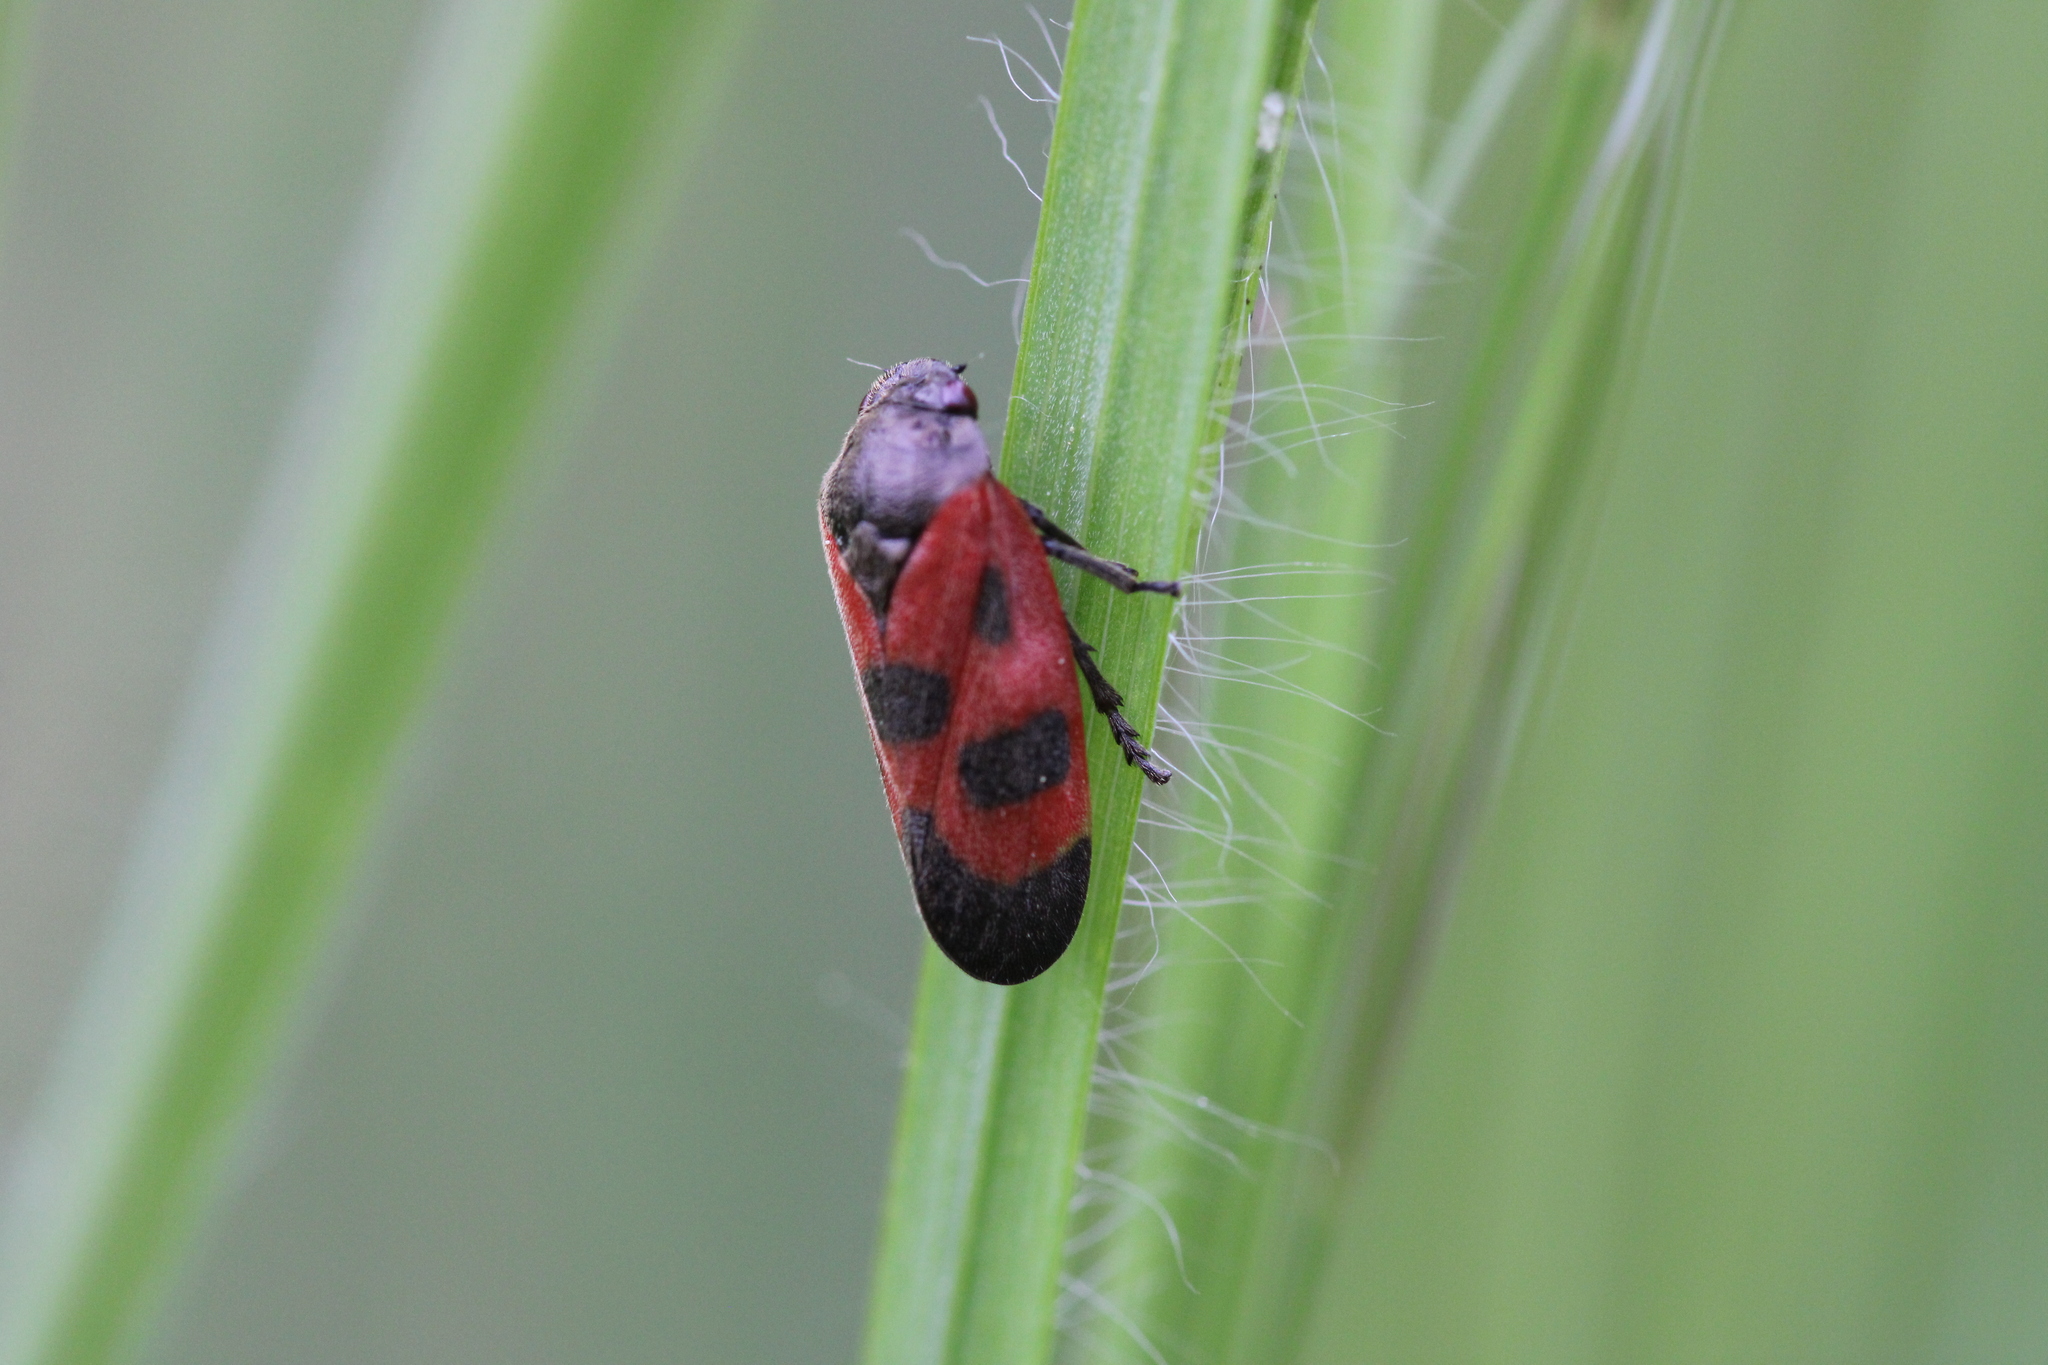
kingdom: Animalia
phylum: Arthropoda
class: Insecta
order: Hemiptera
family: Cercopidae
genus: Haematoloma
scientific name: Haematoloma dorsata
